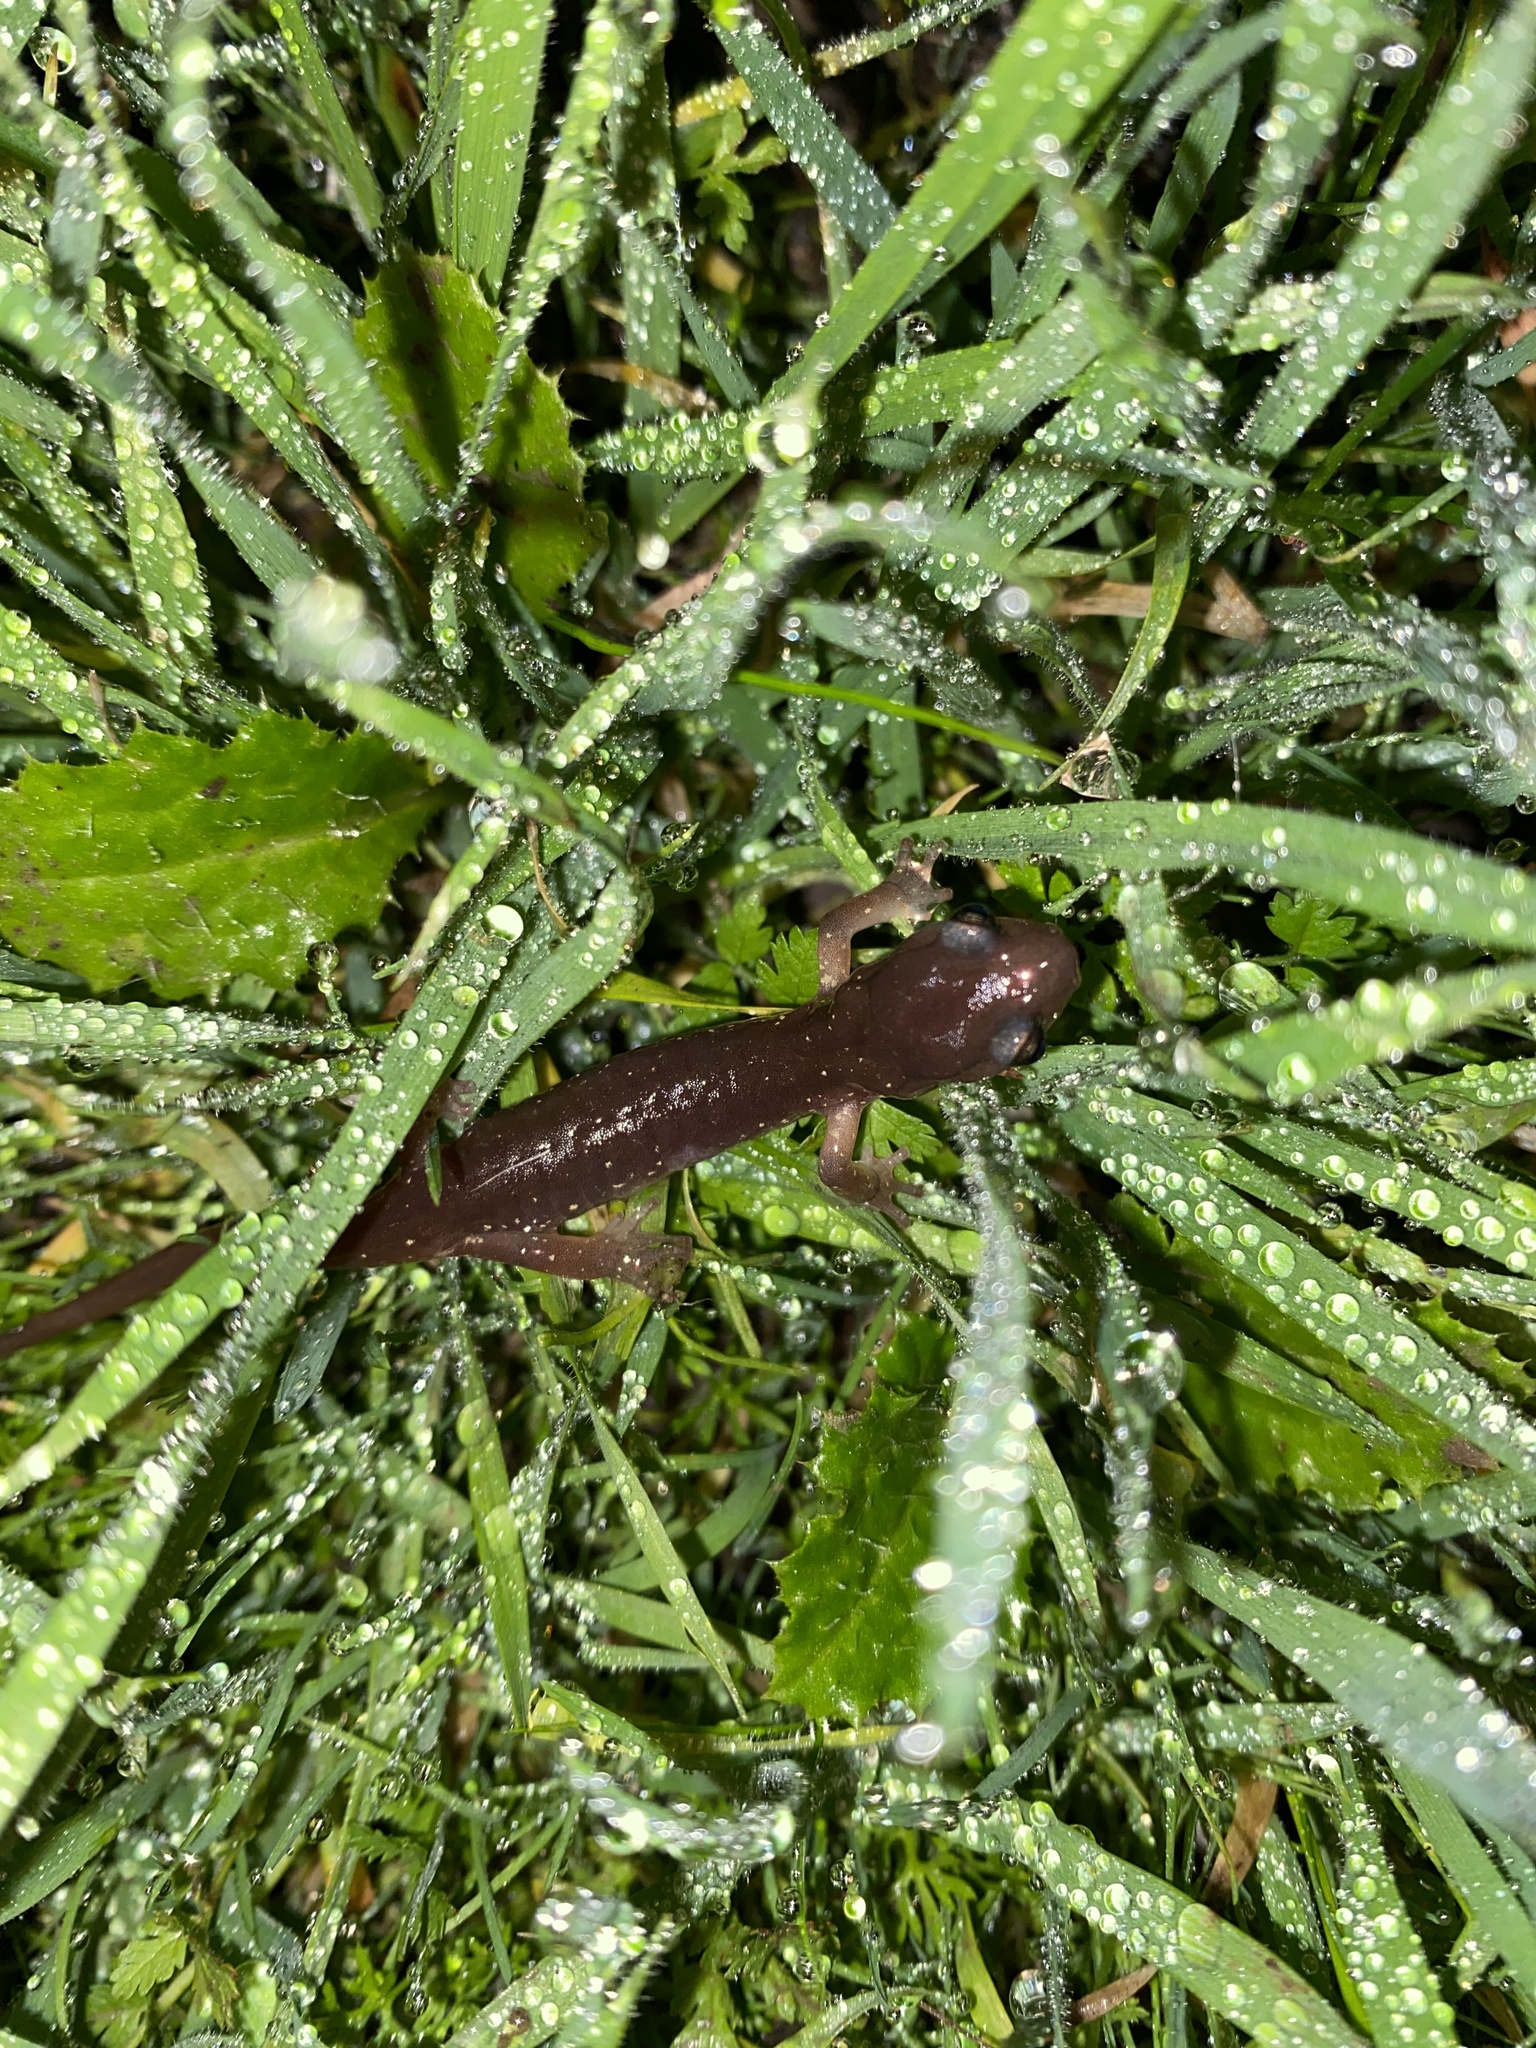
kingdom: Animalia
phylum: Chordata
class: Amphibia
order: Caudata
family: Plethodontidae
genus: Aneides
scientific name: Aneides lugubris
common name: Arboreal salamander
